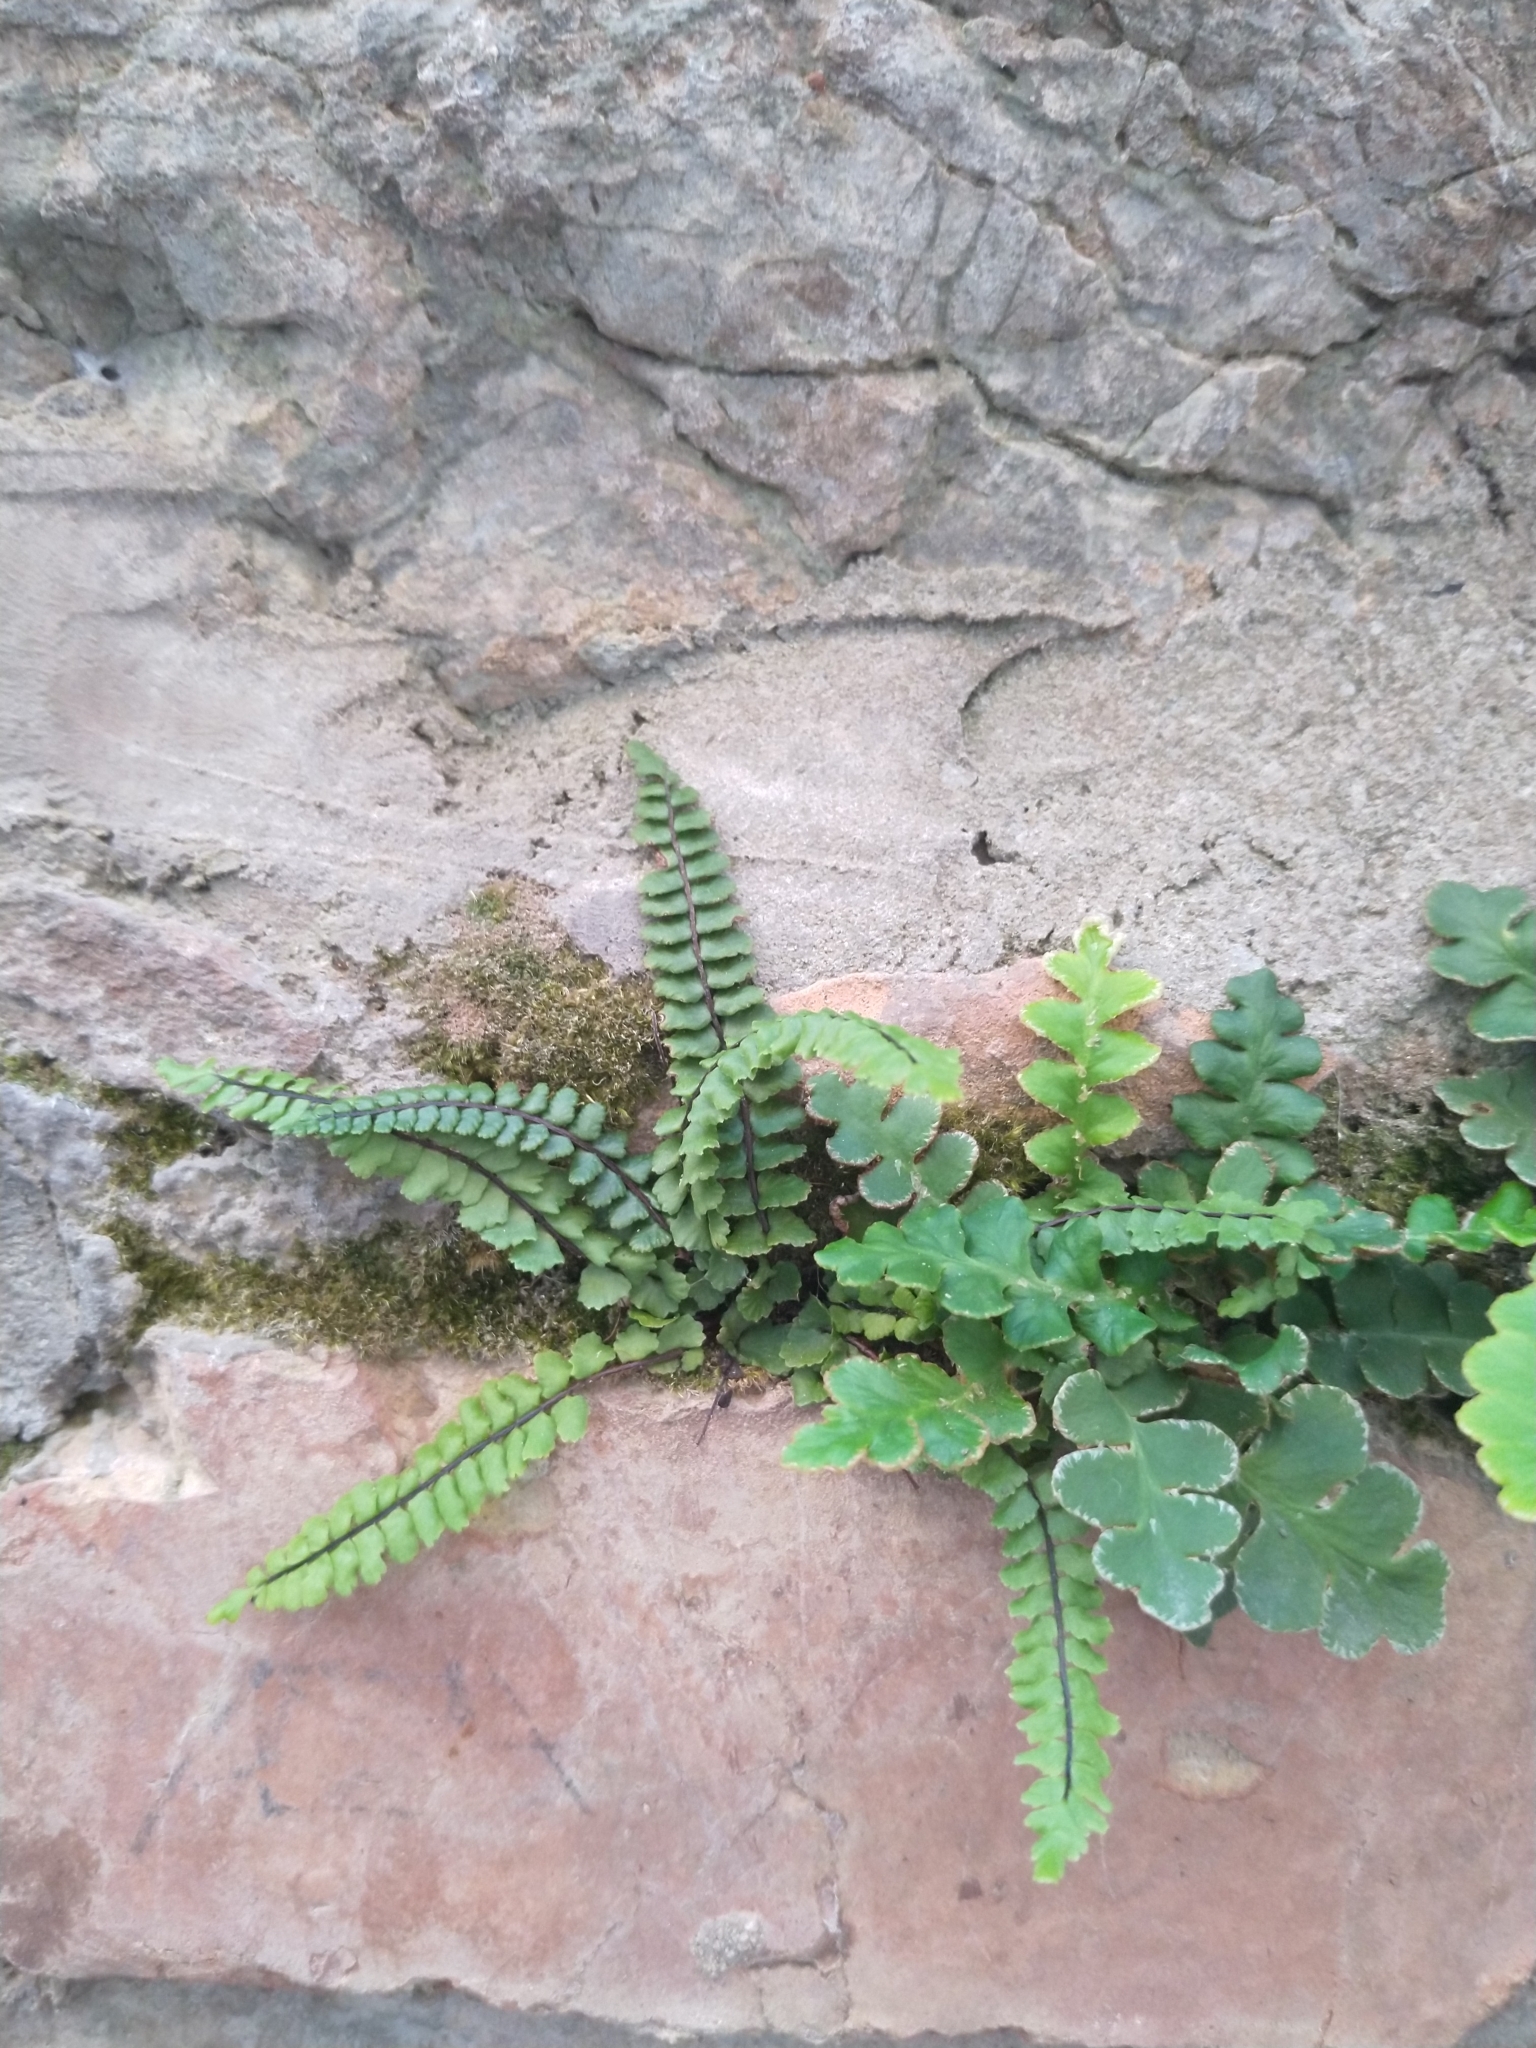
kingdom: Plantae
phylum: Tracheophyta
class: Polypodiopsida
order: Polypodiales
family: Aspleniaceae
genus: Asplenium
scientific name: Asplenium trichomanes
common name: Maidenhair spleenwort
